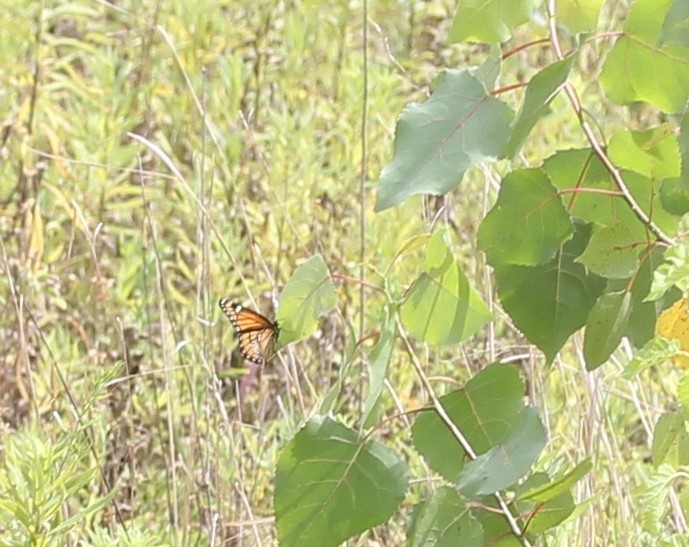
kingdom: Animalia
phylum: Arthropoda
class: Insecta
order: Lepidoptera
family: Nymphalidae
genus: Limenitis
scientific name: Limenitis archippus
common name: Viceroy
